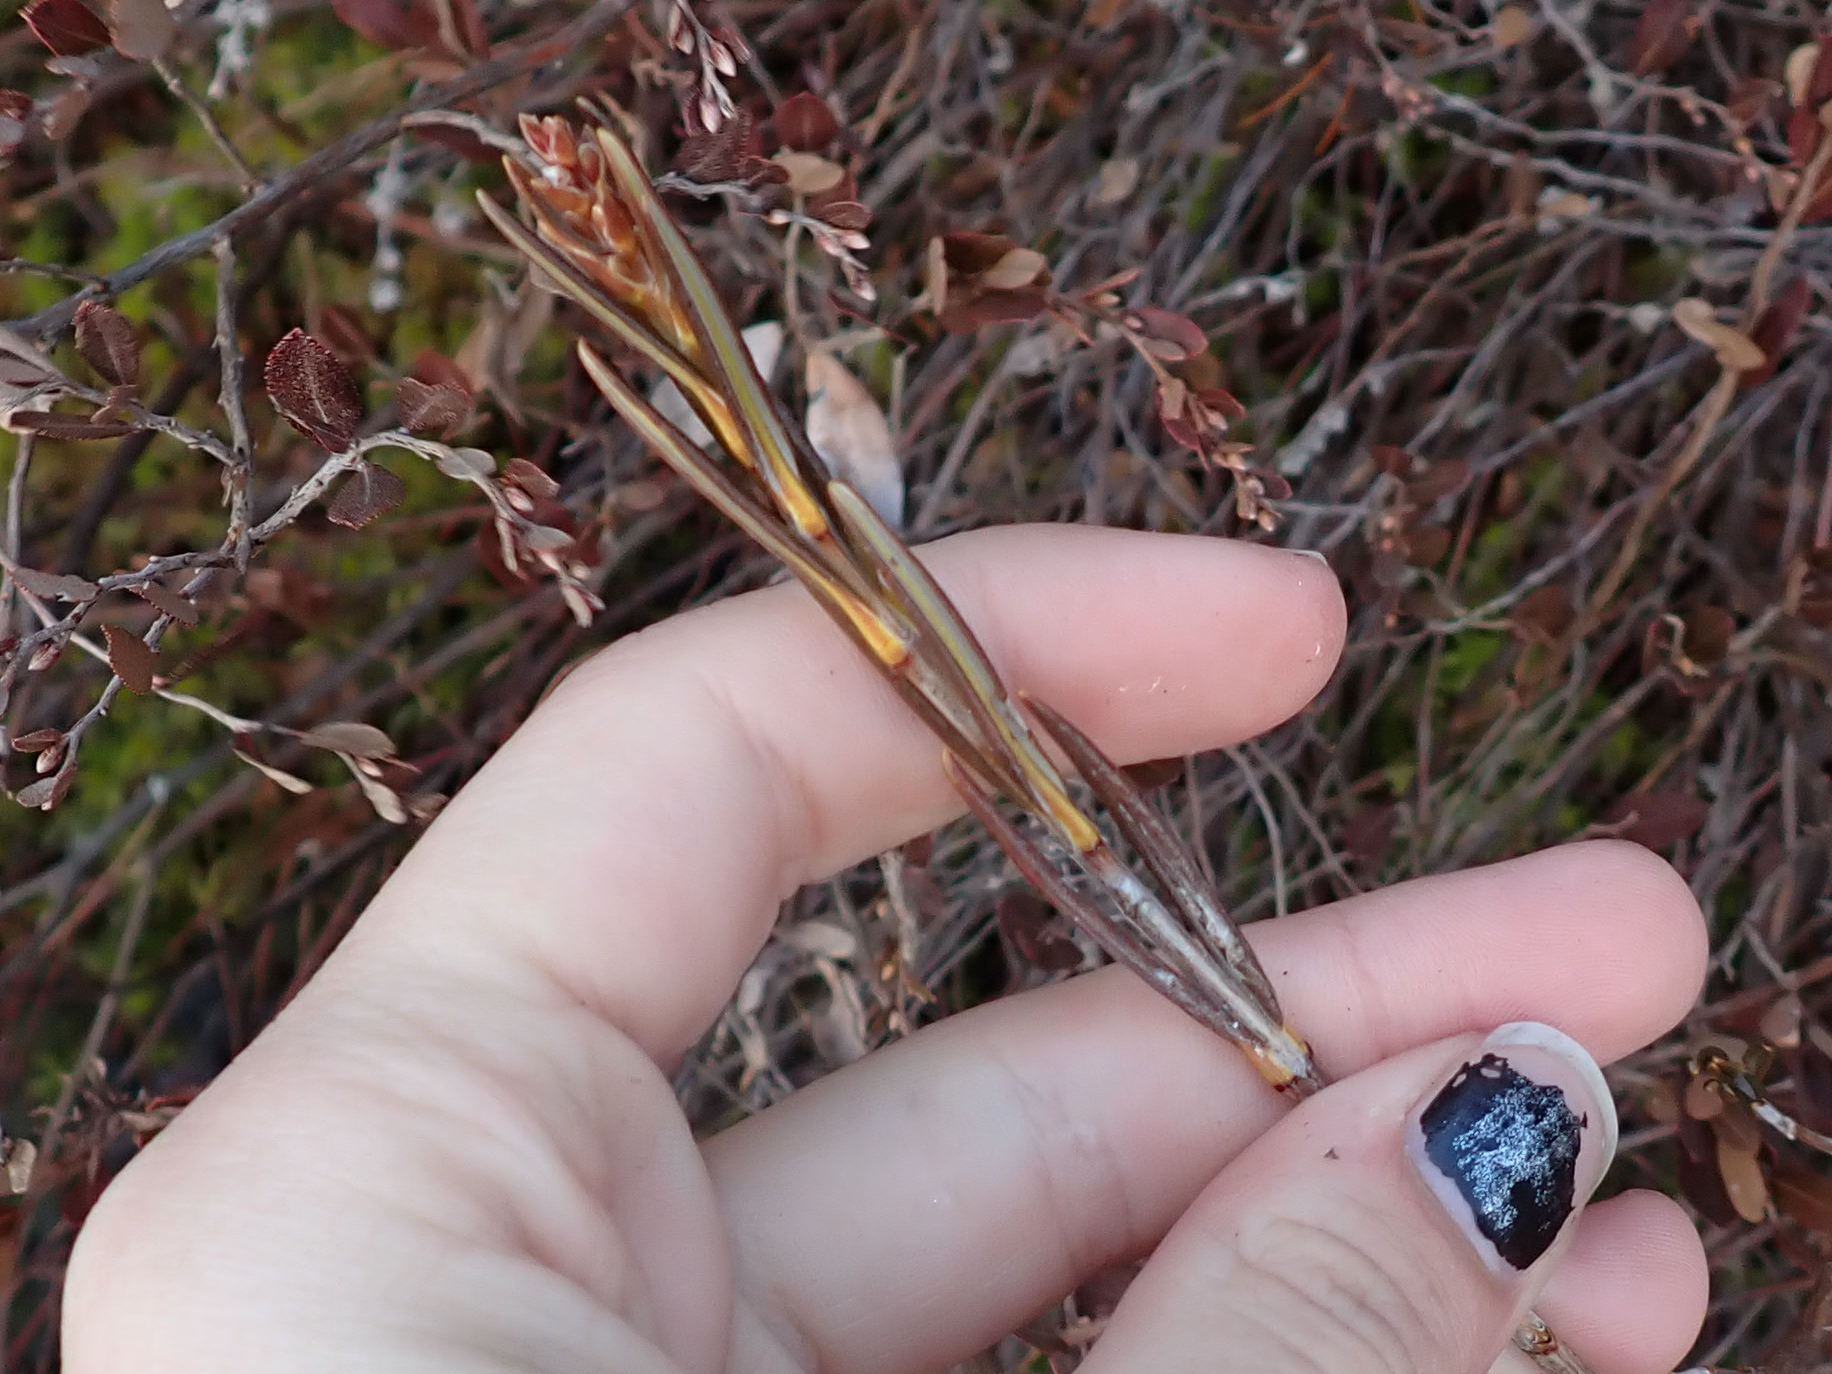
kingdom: Plantae
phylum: Tracheophyta
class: Magnoliopsida
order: Ericales
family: Ericaceae
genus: Kalmia
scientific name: Kalmia polifolia
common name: Bog-laurel
